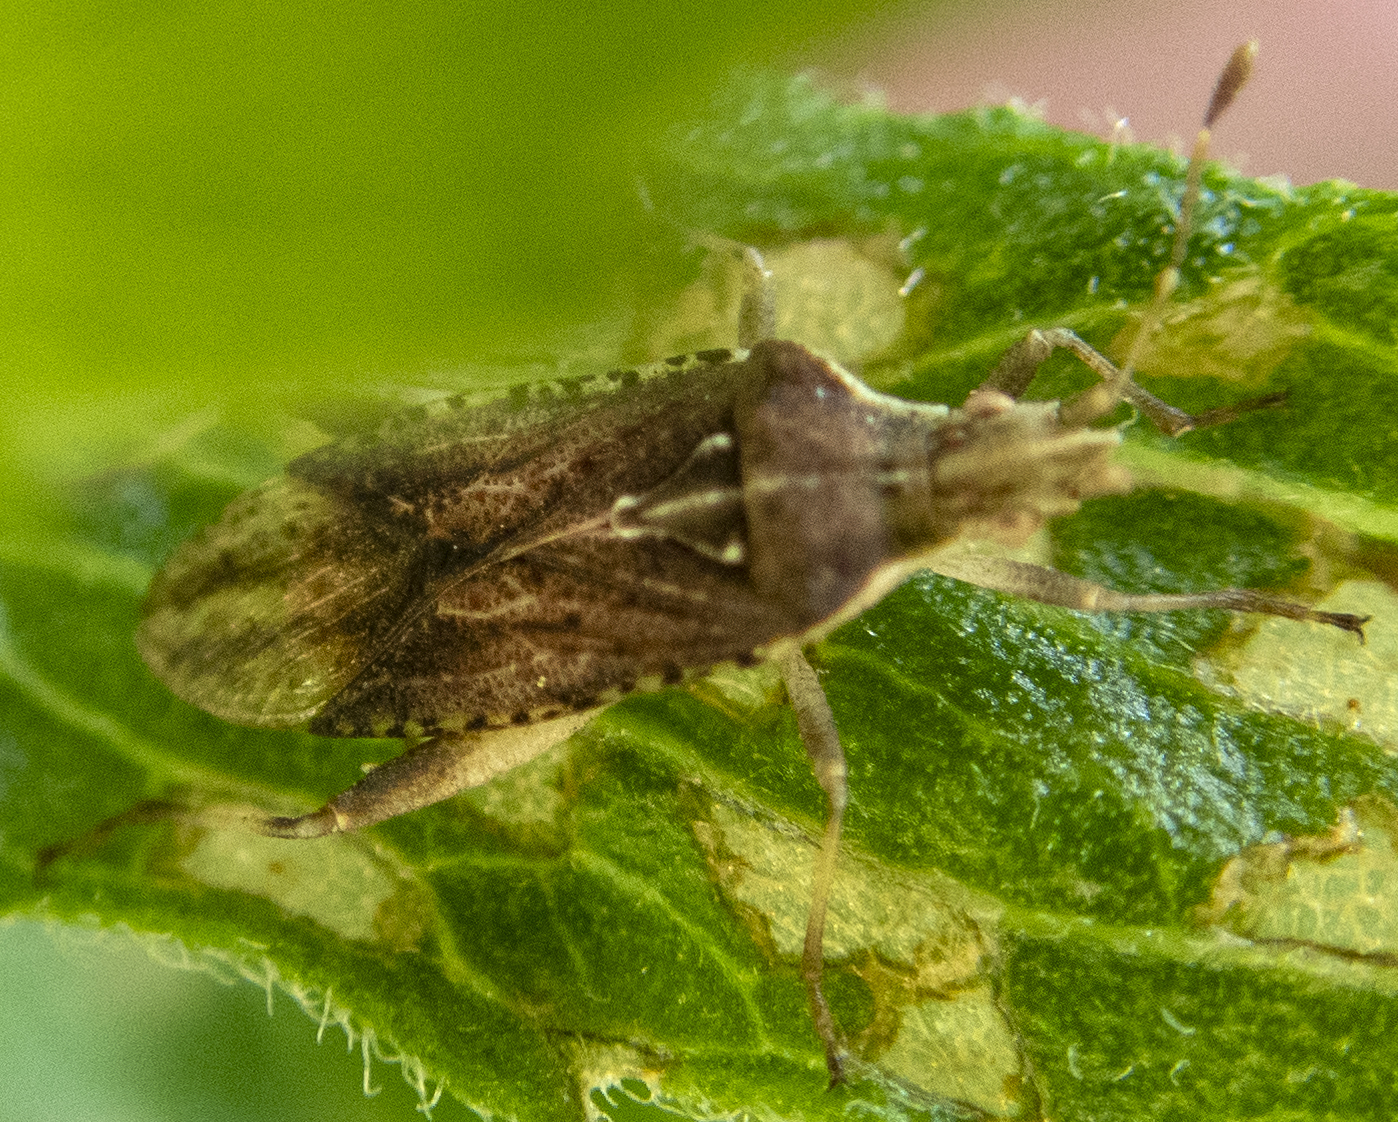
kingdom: Animalia
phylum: Arthropoda
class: Insecta
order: Hemiptera
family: Rhopalidae
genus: Harmostes
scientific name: Harmostes fraterculus
